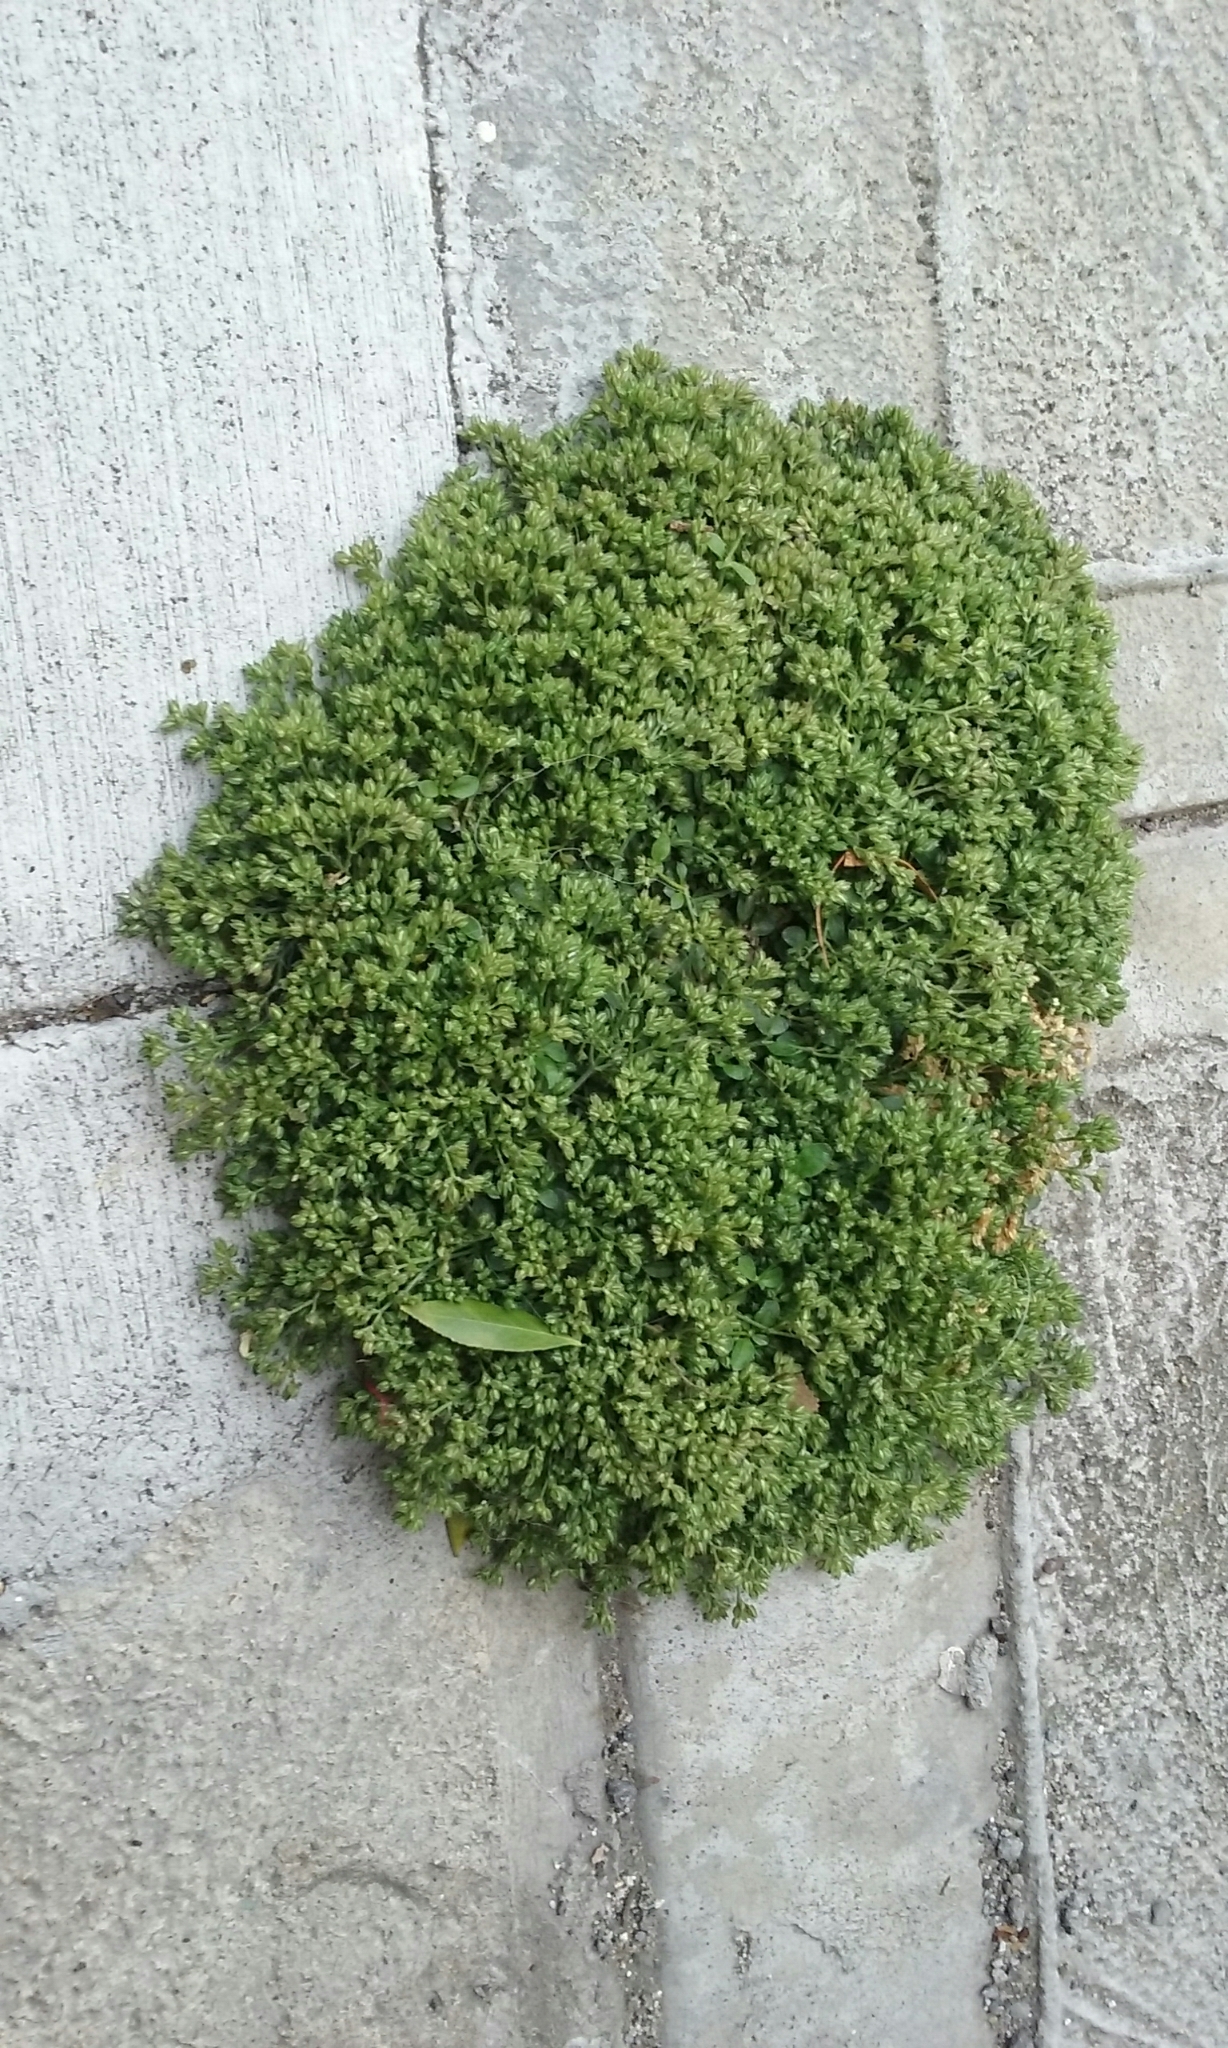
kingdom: Plantae
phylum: Tracheophyta
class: Magnoliopsida
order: Caryophyllales
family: Caryophyllaceae
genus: Polycarpon
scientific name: Polycarpon tetraphyllum
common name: Four-leaved all-seed
